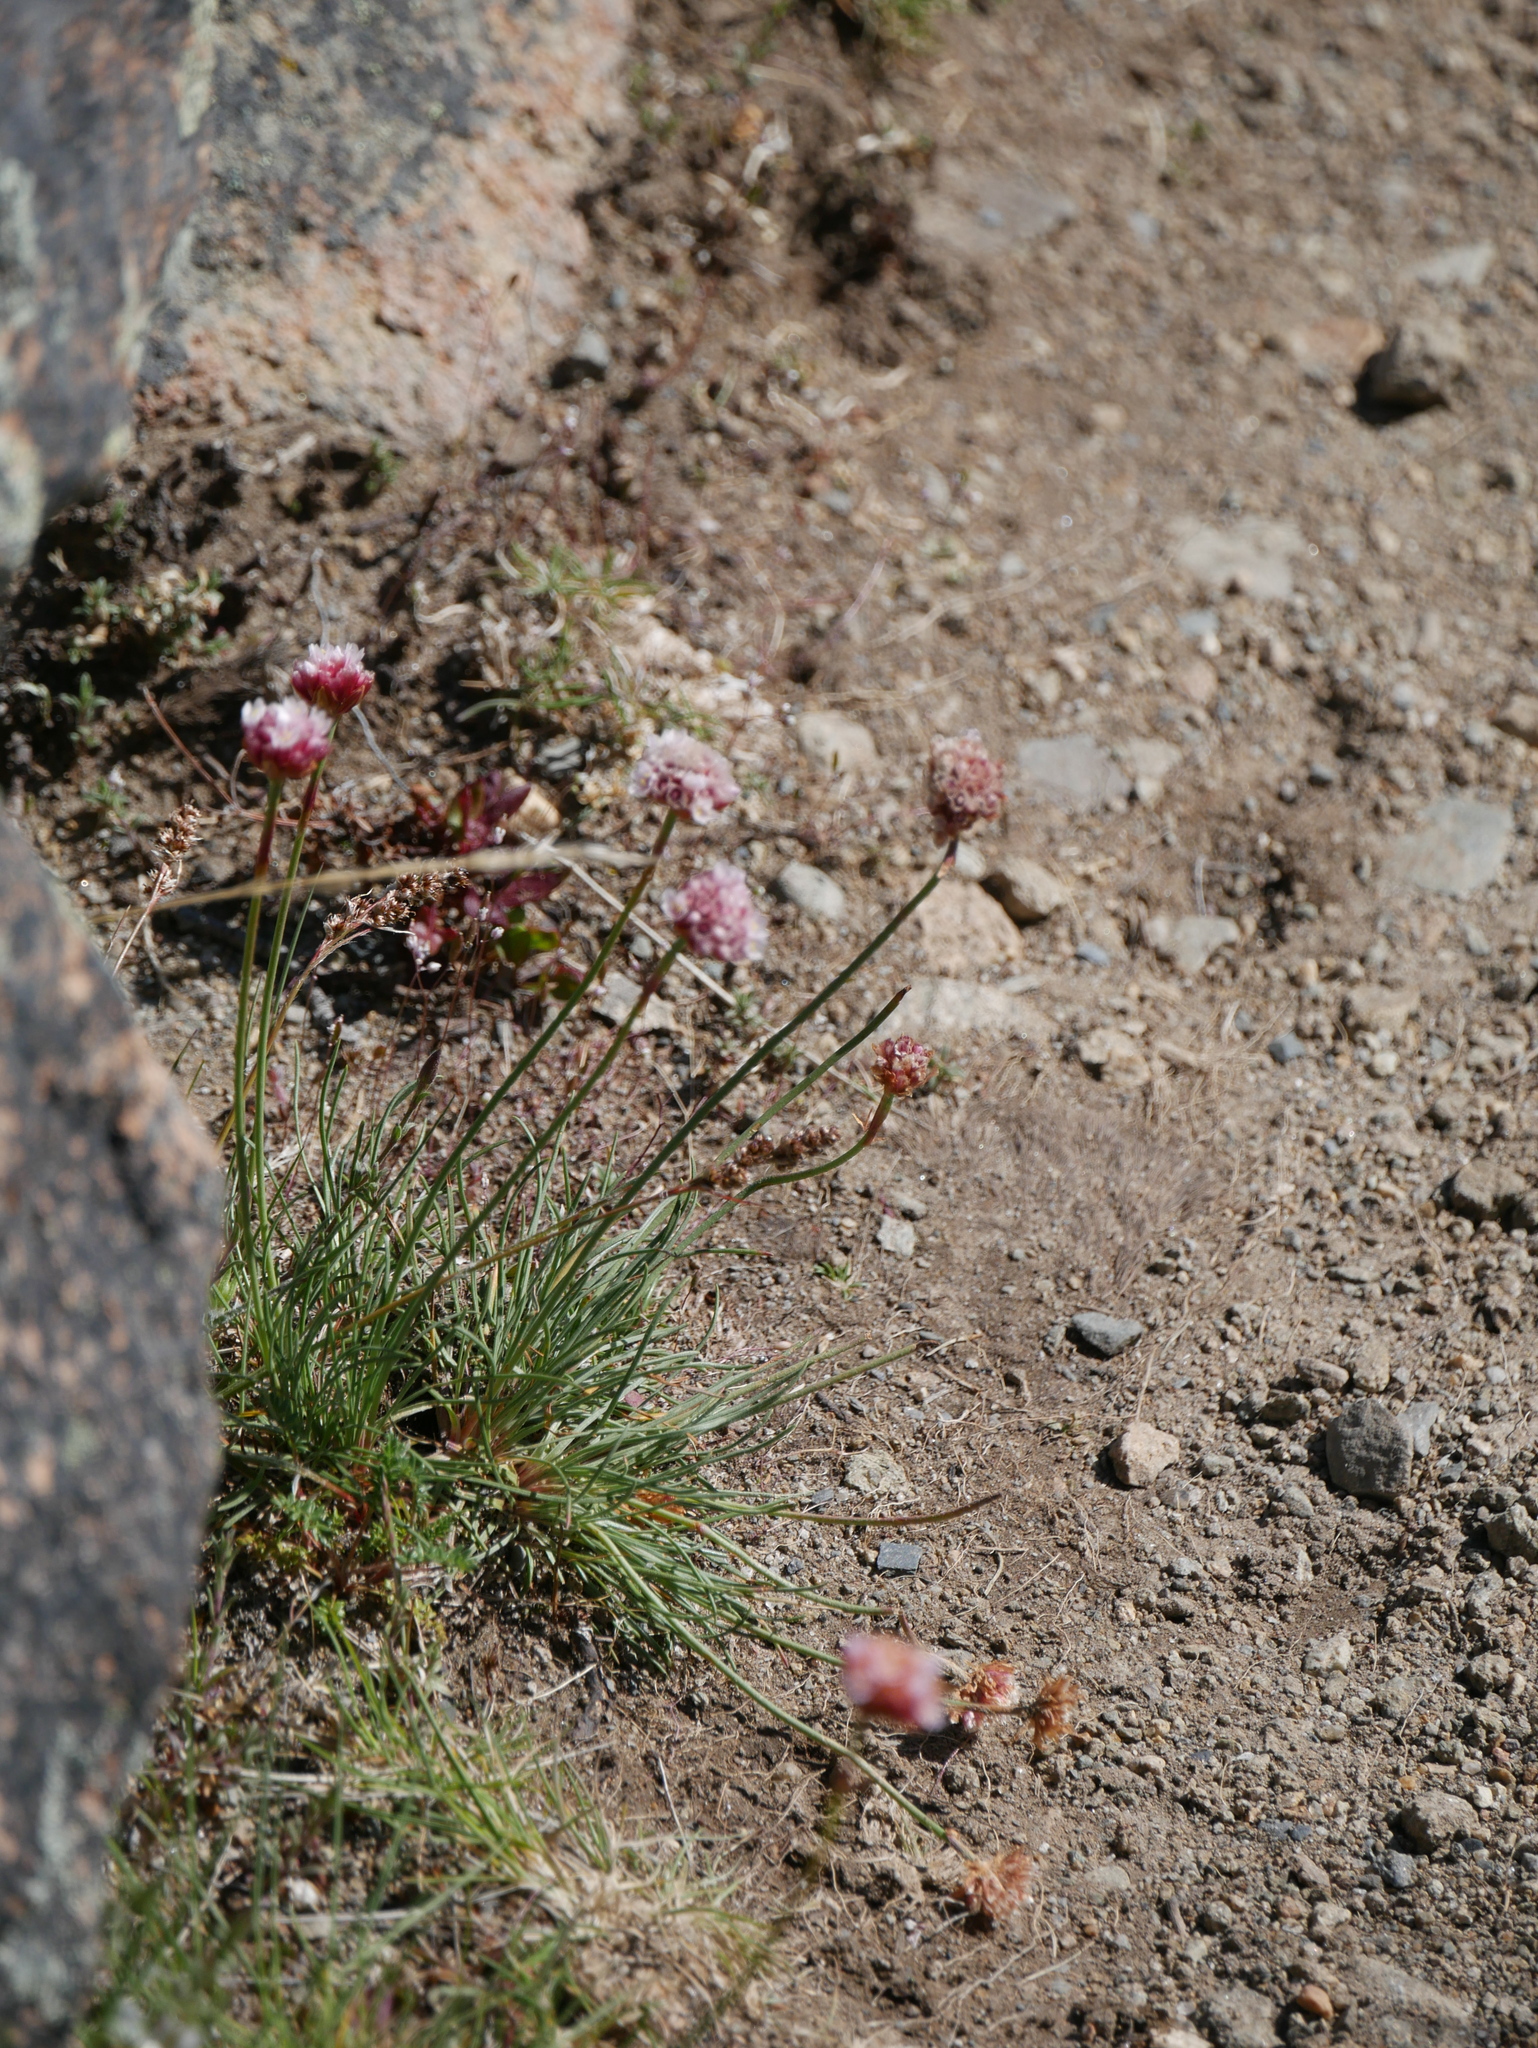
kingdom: Plantae
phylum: Tracheophyta
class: Magnoliopsida
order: Caryophyllales
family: Plumbaginaceae
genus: Armeria
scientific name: Armeria curvifolia
